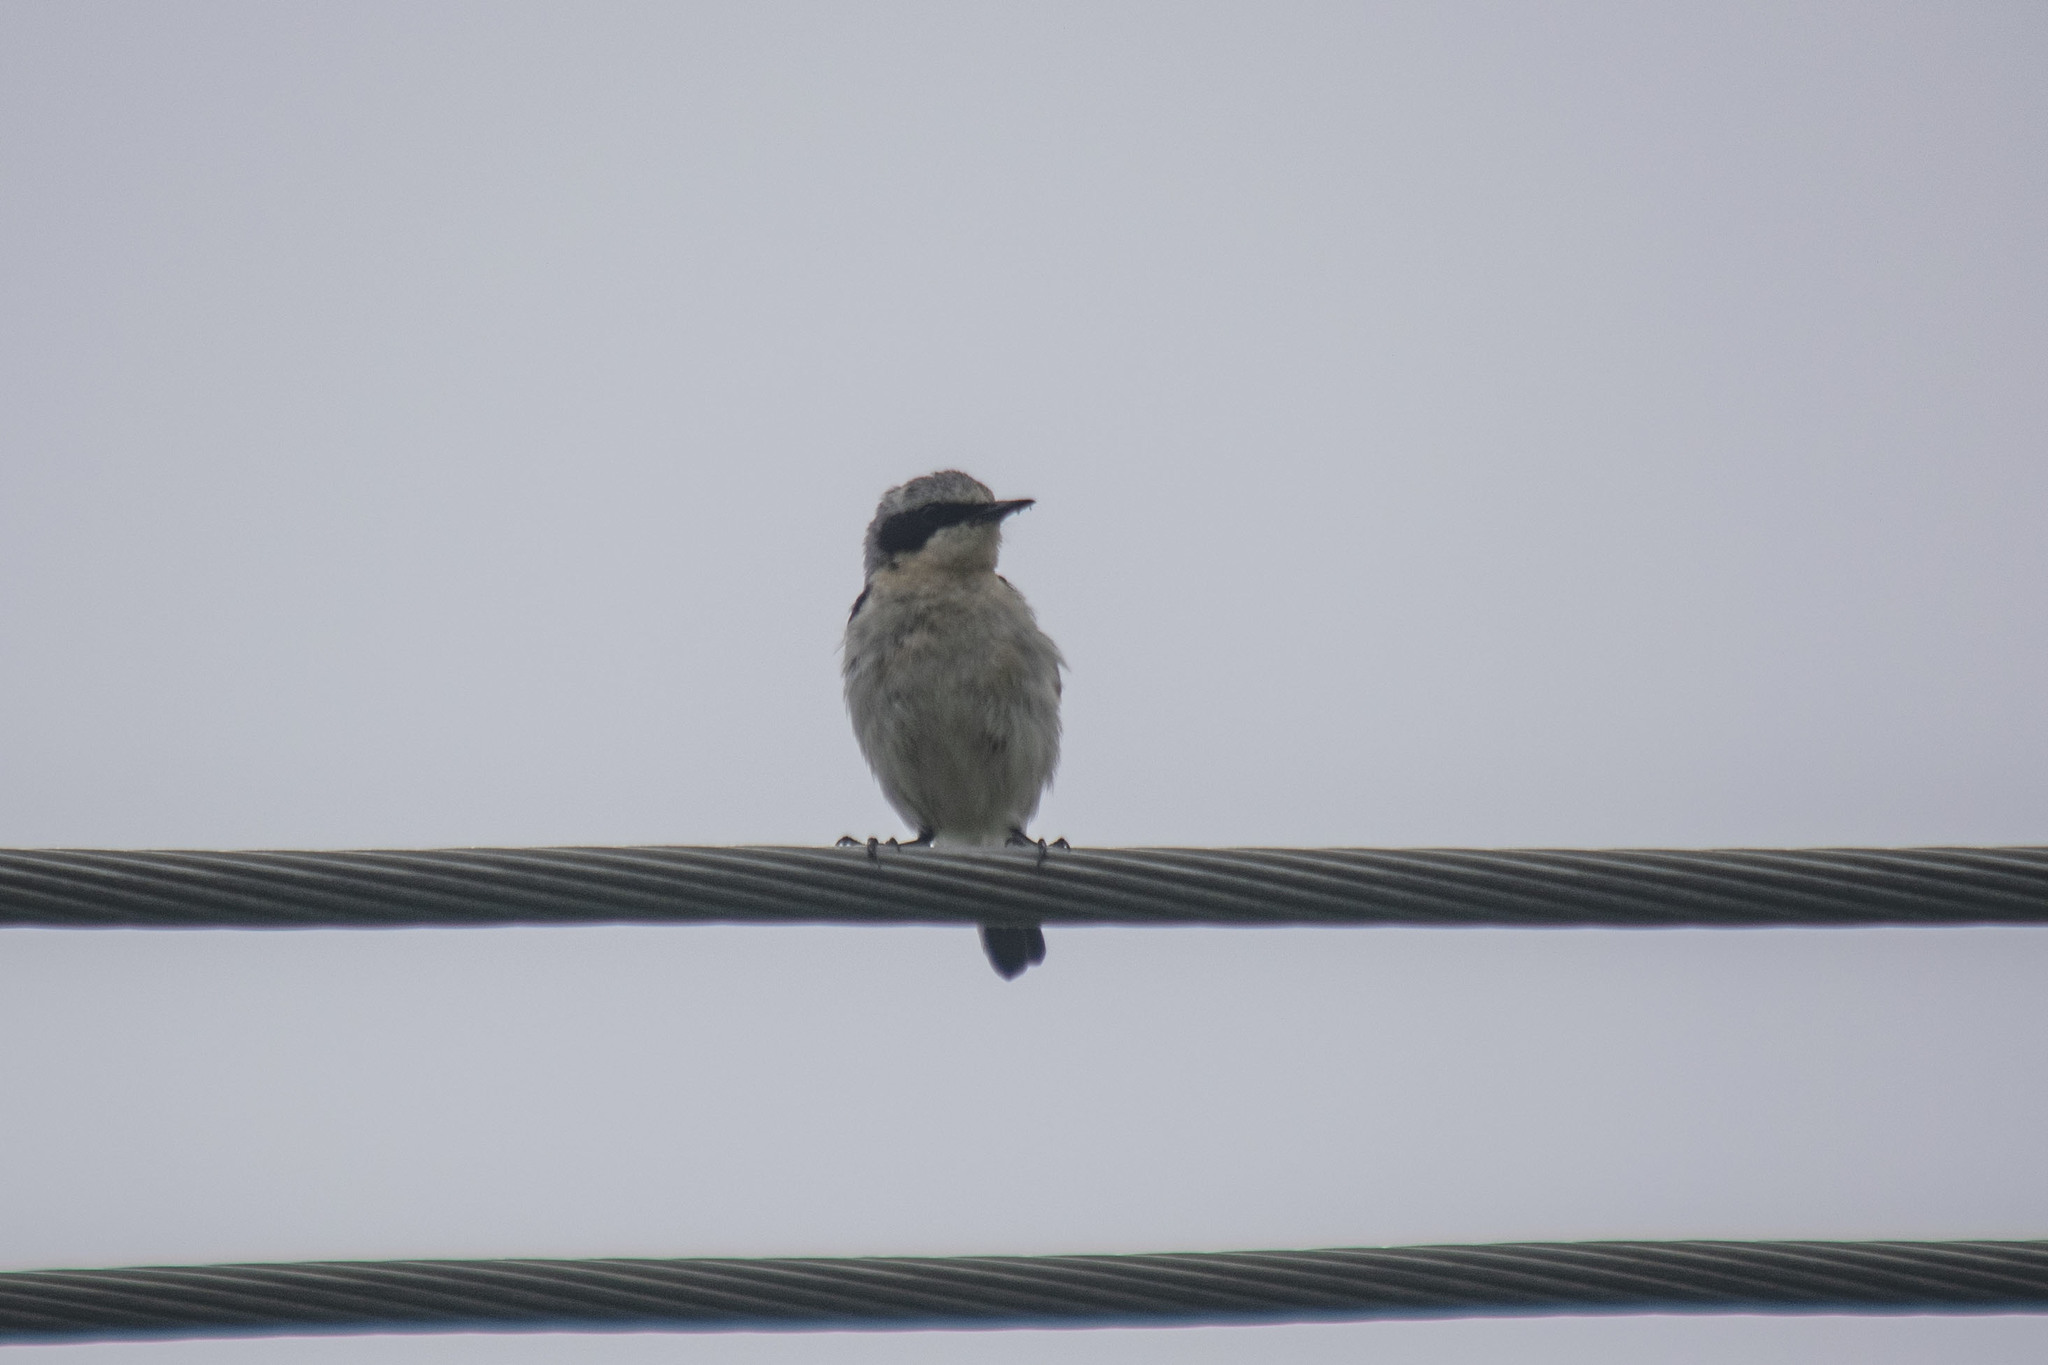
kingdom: Animalia
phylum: Chordata
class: Aves
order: Passeriformes
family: Muscicapidae
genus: Oenanthe
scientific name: Oenanthe oenanthe
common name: Northern wheatear
